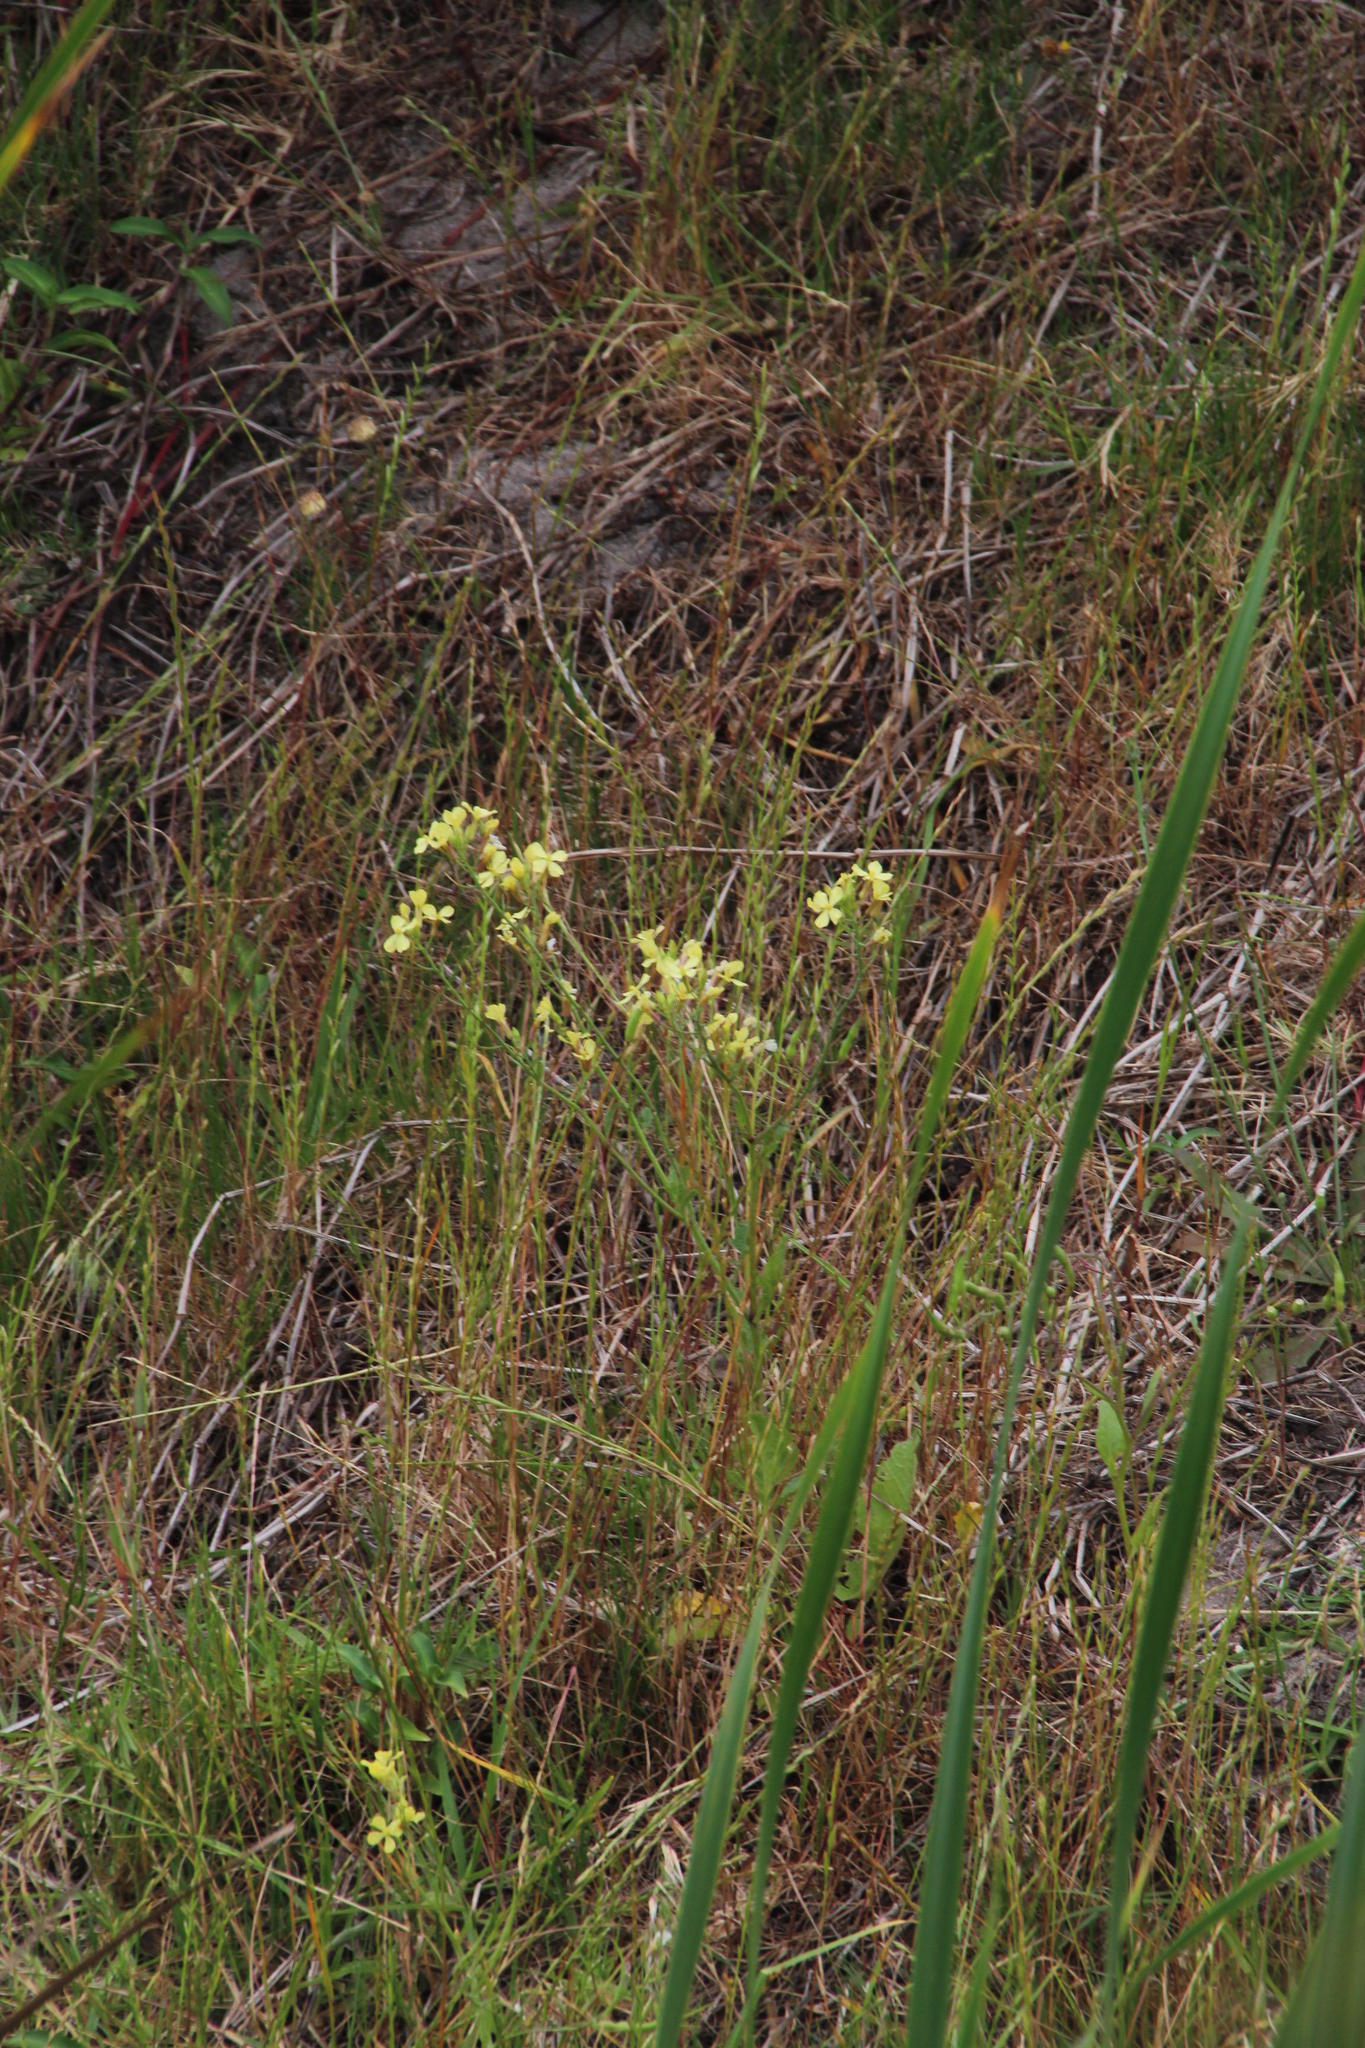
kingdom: Plantae
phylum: Tracheophyta
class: Magnoliopsida
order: Brassicales
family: Brassicaceae
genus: Raphanus
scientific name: Raphanus raphanistrum
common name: Wild radish
